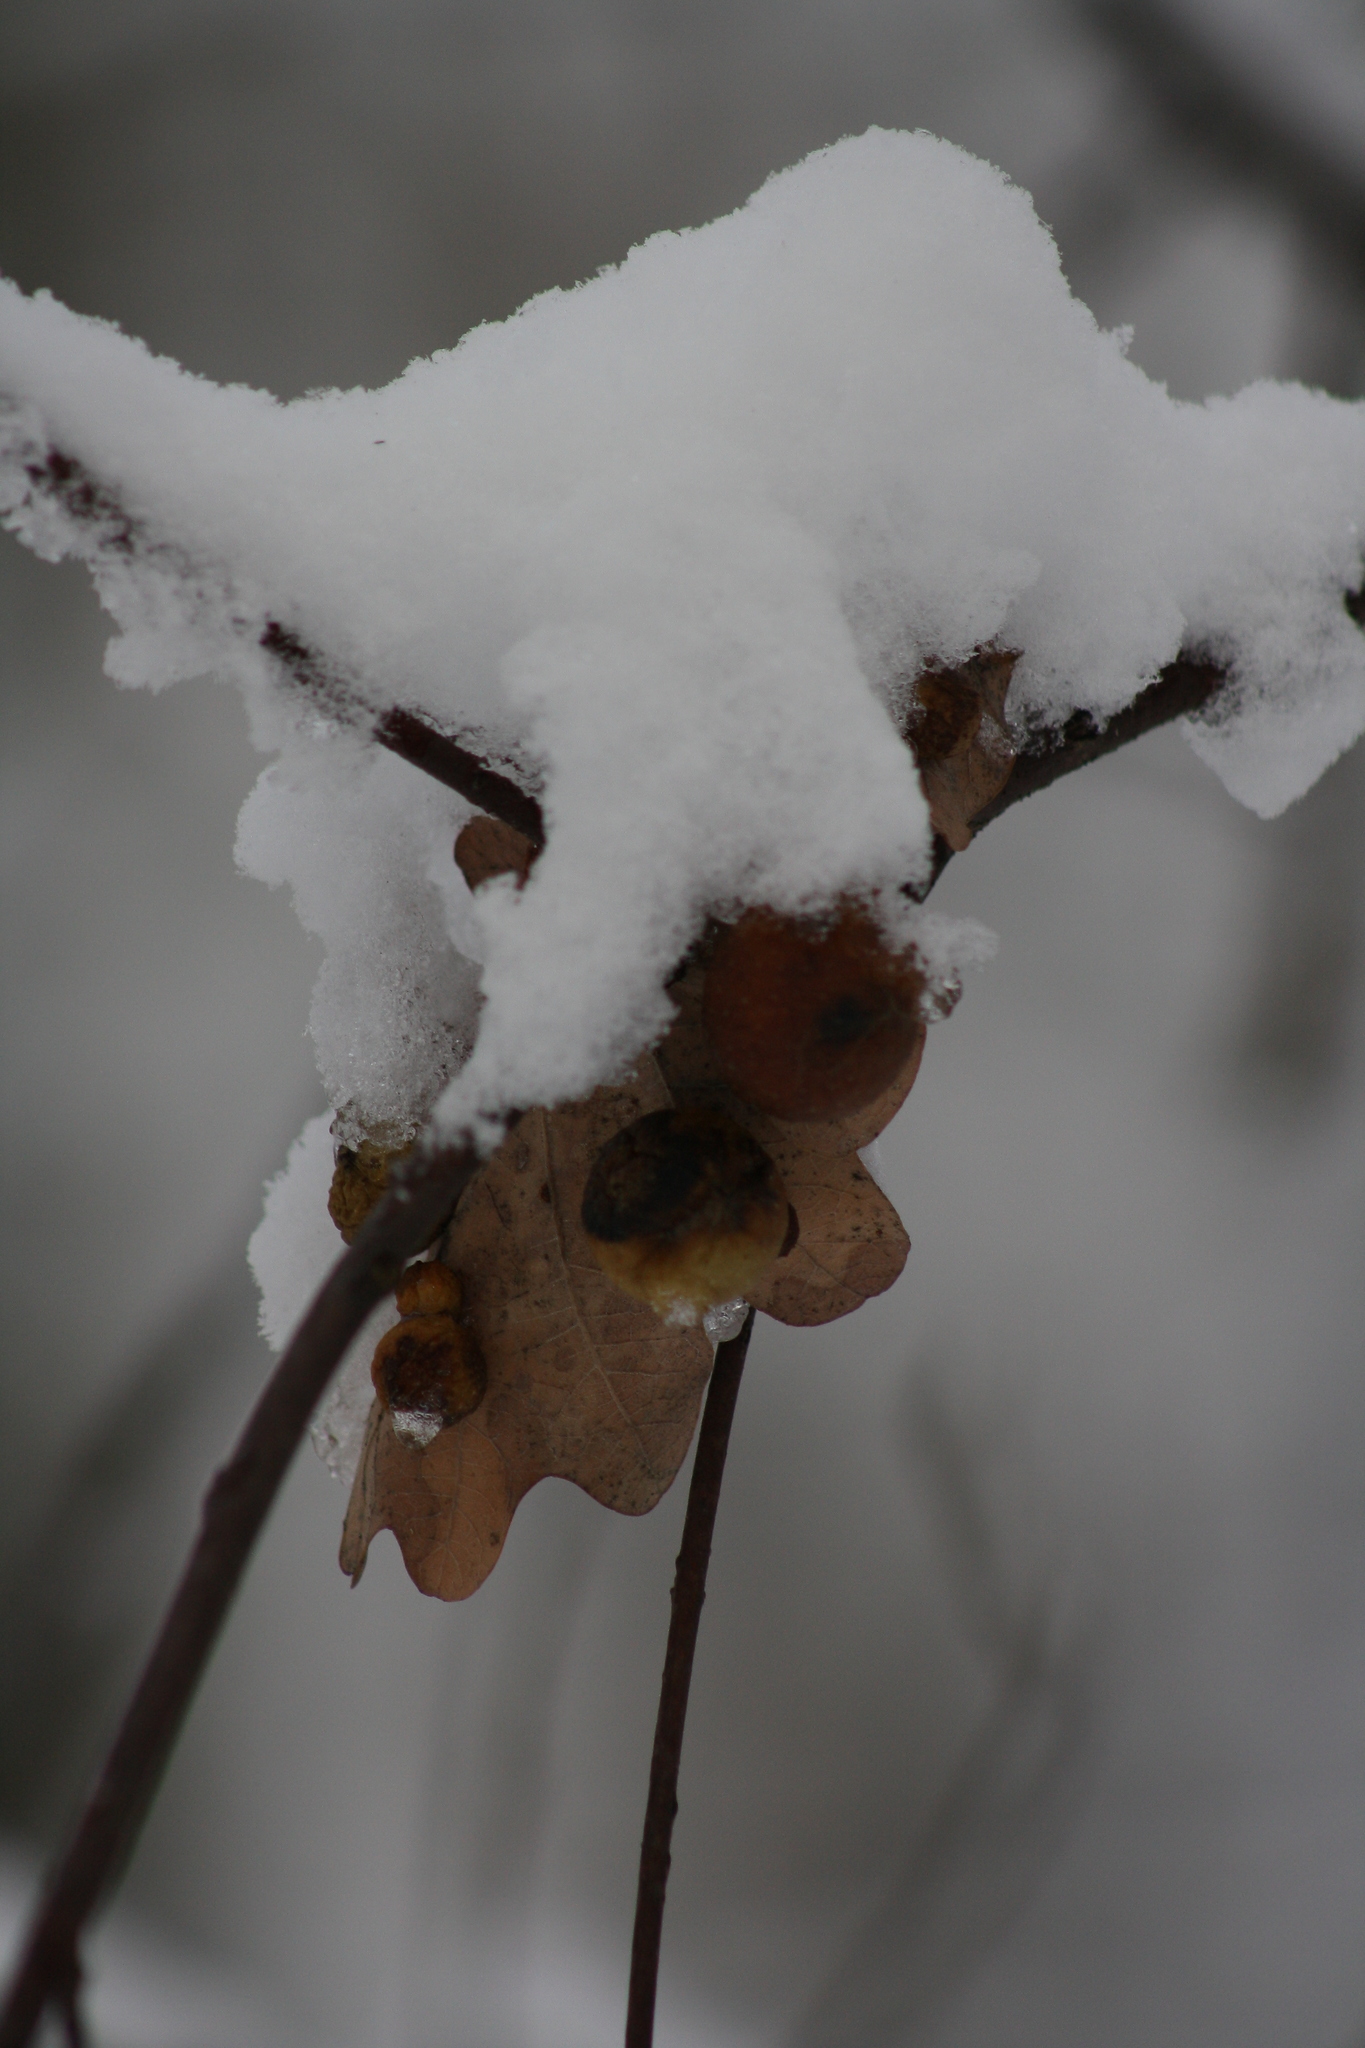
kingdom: Animalia
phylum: Arthropoda
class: Insecta
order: Hymenoptera
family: Cynipidae
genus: Cynips
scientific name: Cynips quercusfolii
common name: Cherry gall
